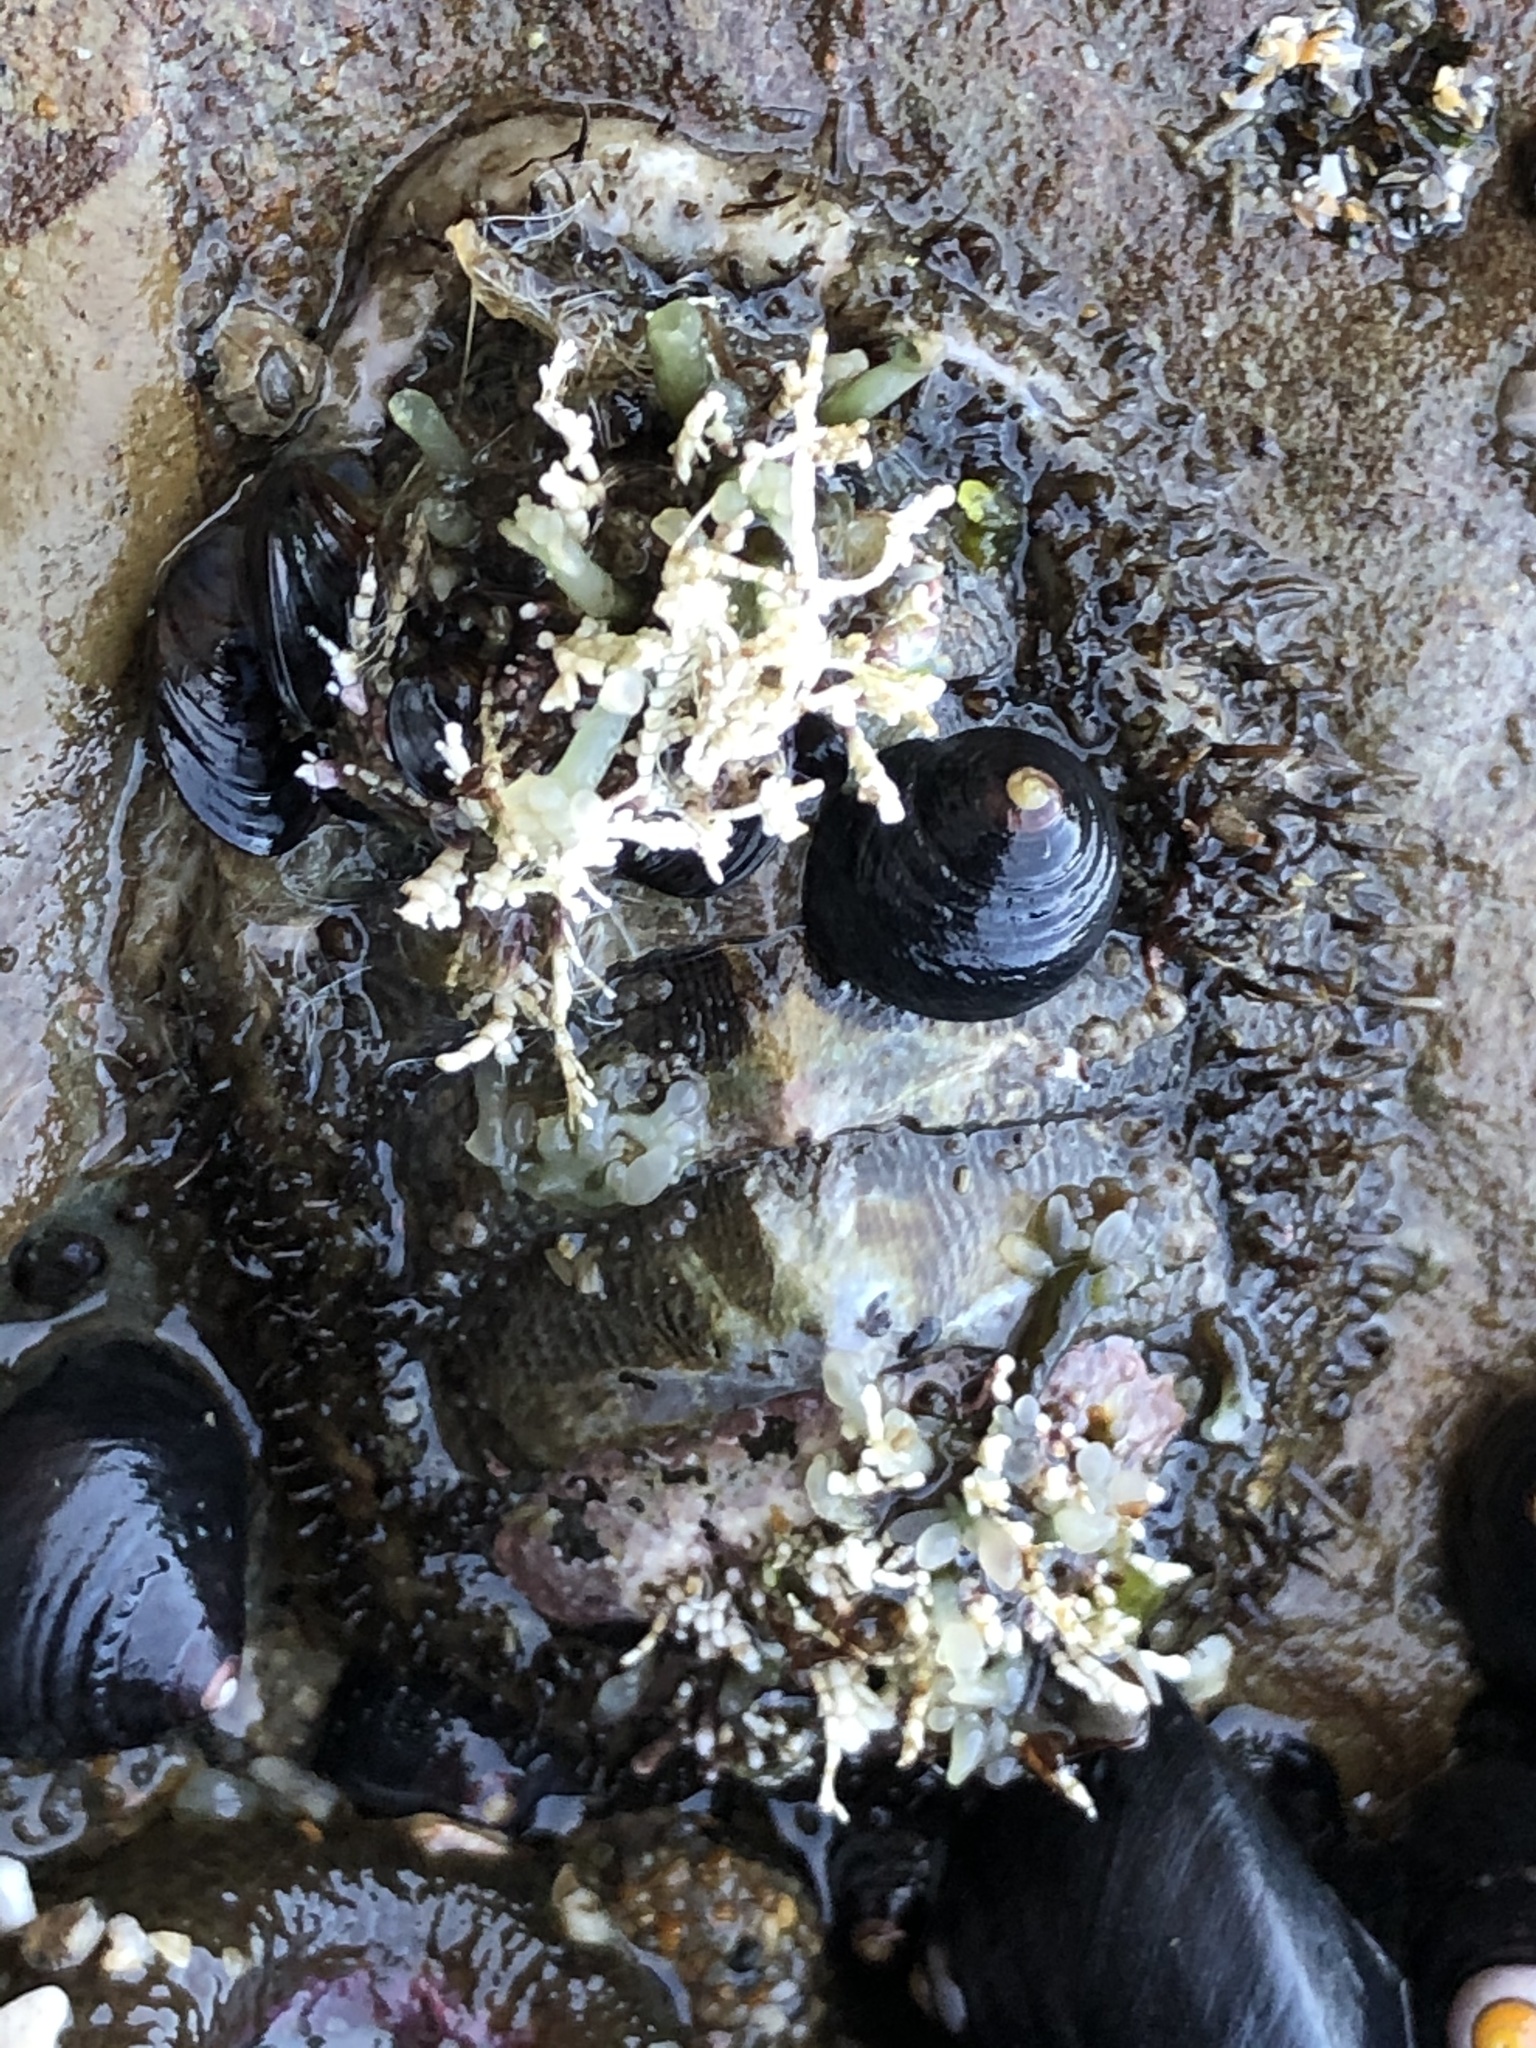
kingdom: Animalia
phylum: Mollusca
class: Polyplacophora
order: Chitonida
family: Mopaliidae
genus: Mopalia
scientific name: Mopalia muscosa
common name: Mossy chiton
